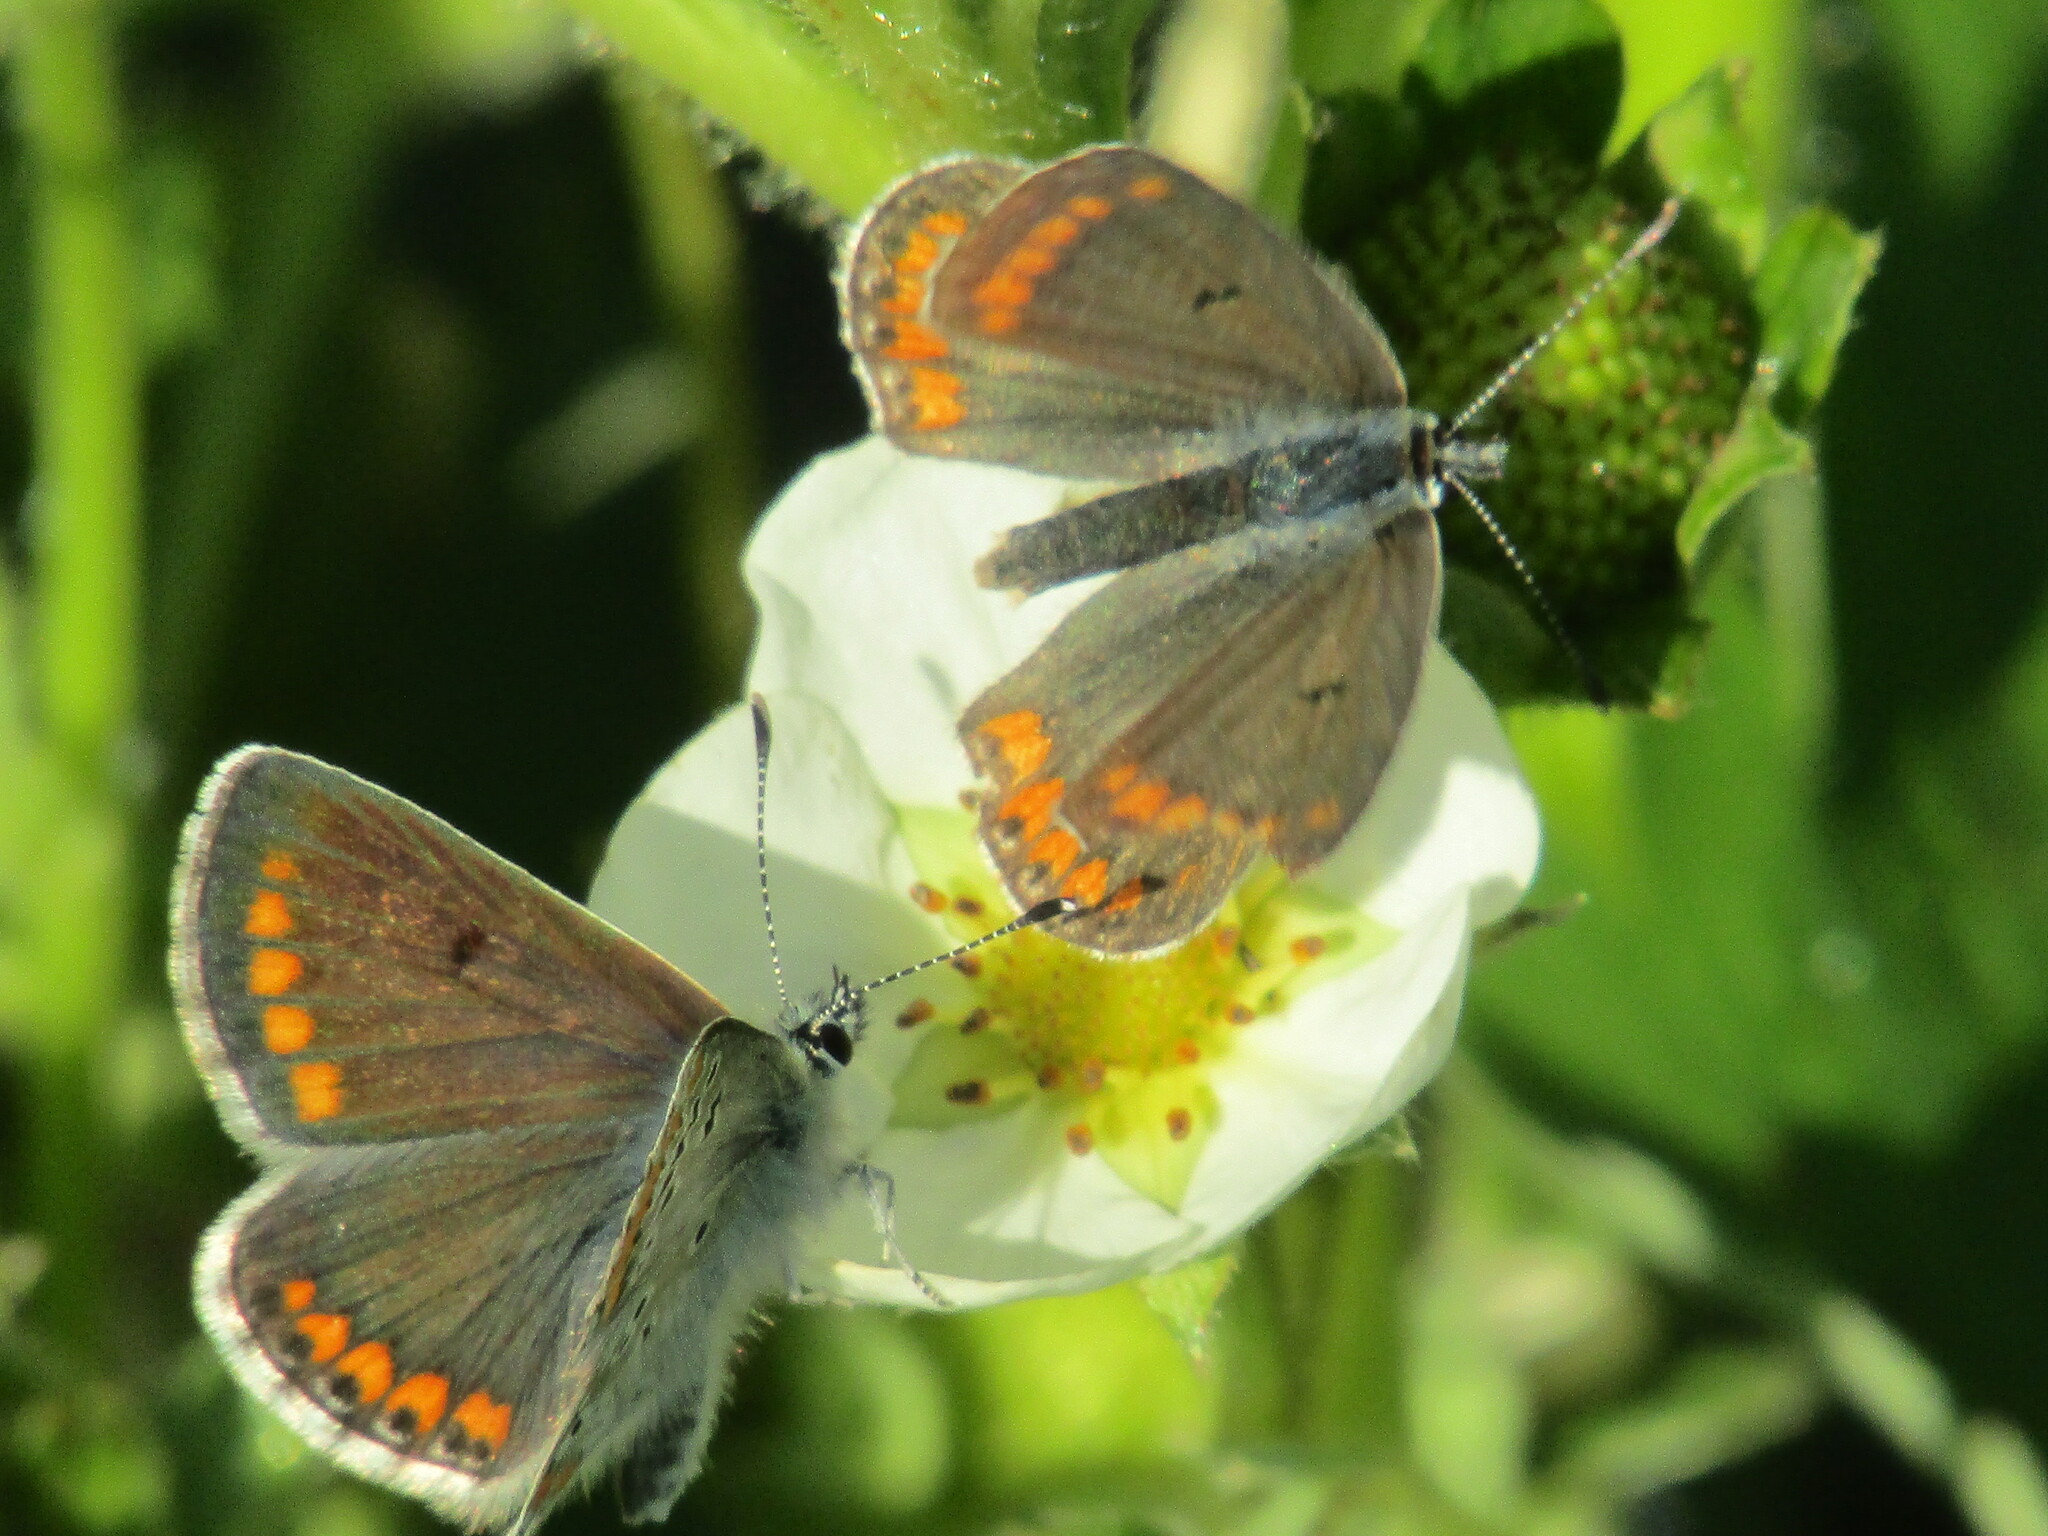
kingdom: Animalia
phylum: Arthropoda
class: Insecta
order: Lepidoptera
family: Lycaenidae
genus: Aricia
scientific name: Aricia agestis
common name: Brown argus
